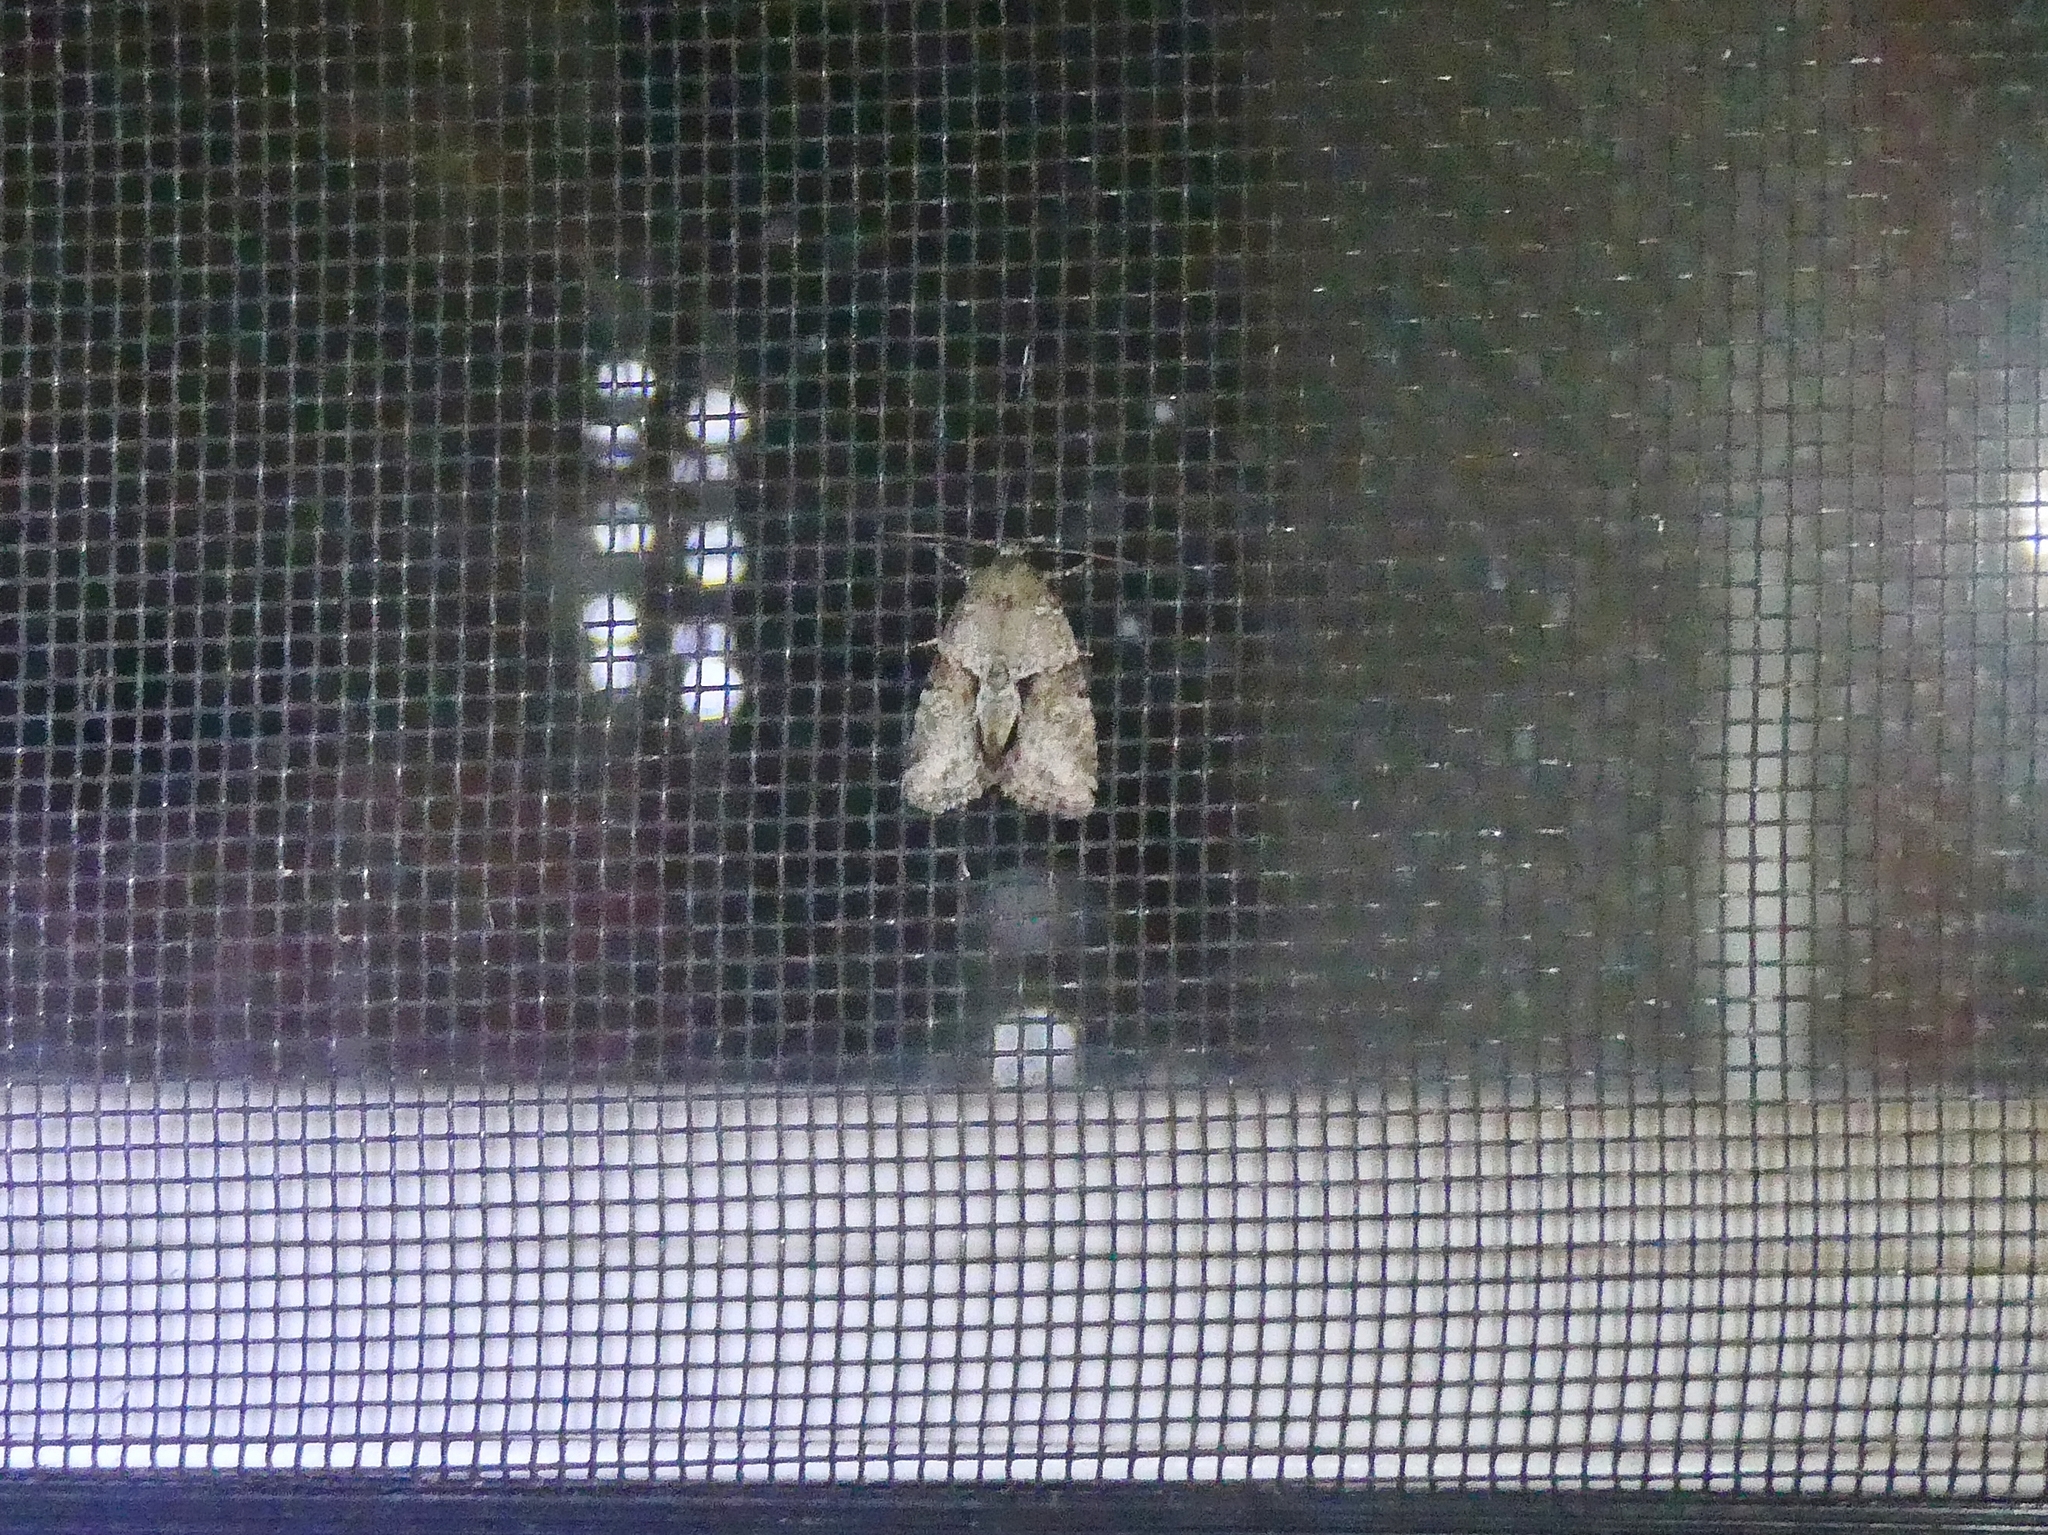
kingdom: Animalia
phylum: Arthropoda
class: Insecta
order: Lepidoptera
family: Noctuidae
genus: Neoligia
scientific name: Neoligia exhausta
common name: Exhausted brocade
